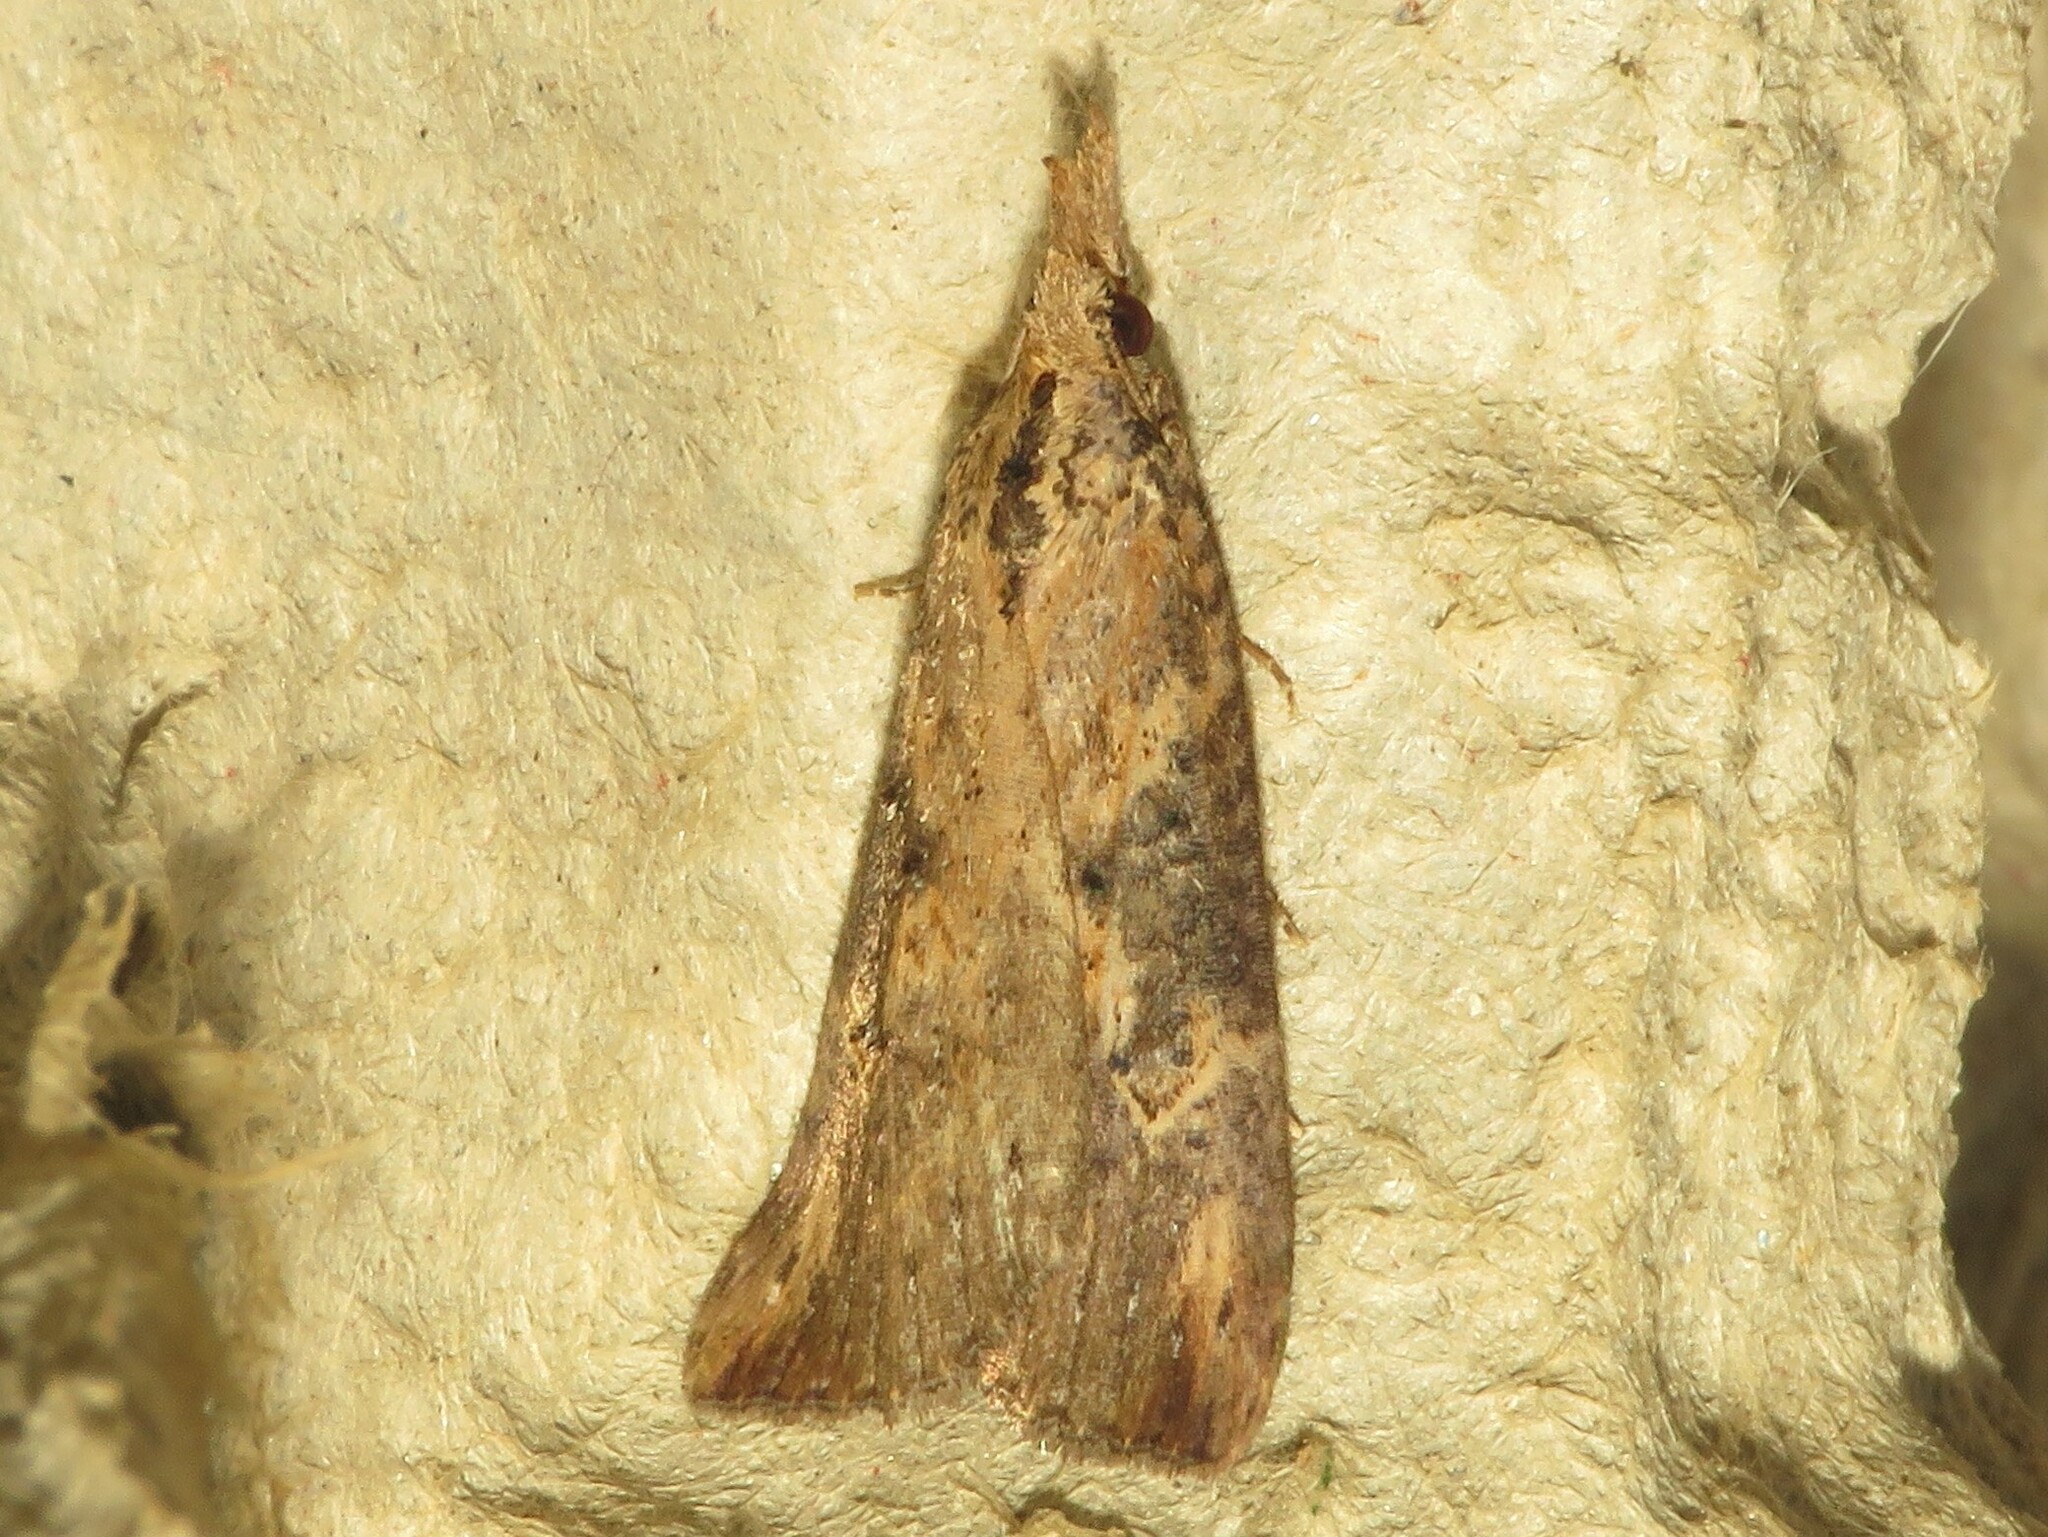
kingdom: Animalia
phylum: Arthropoda
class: Insecta
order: Lepidoptera
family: Erebidae
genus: Hypena
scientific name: Hypena humuli
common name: Hop vine snout
